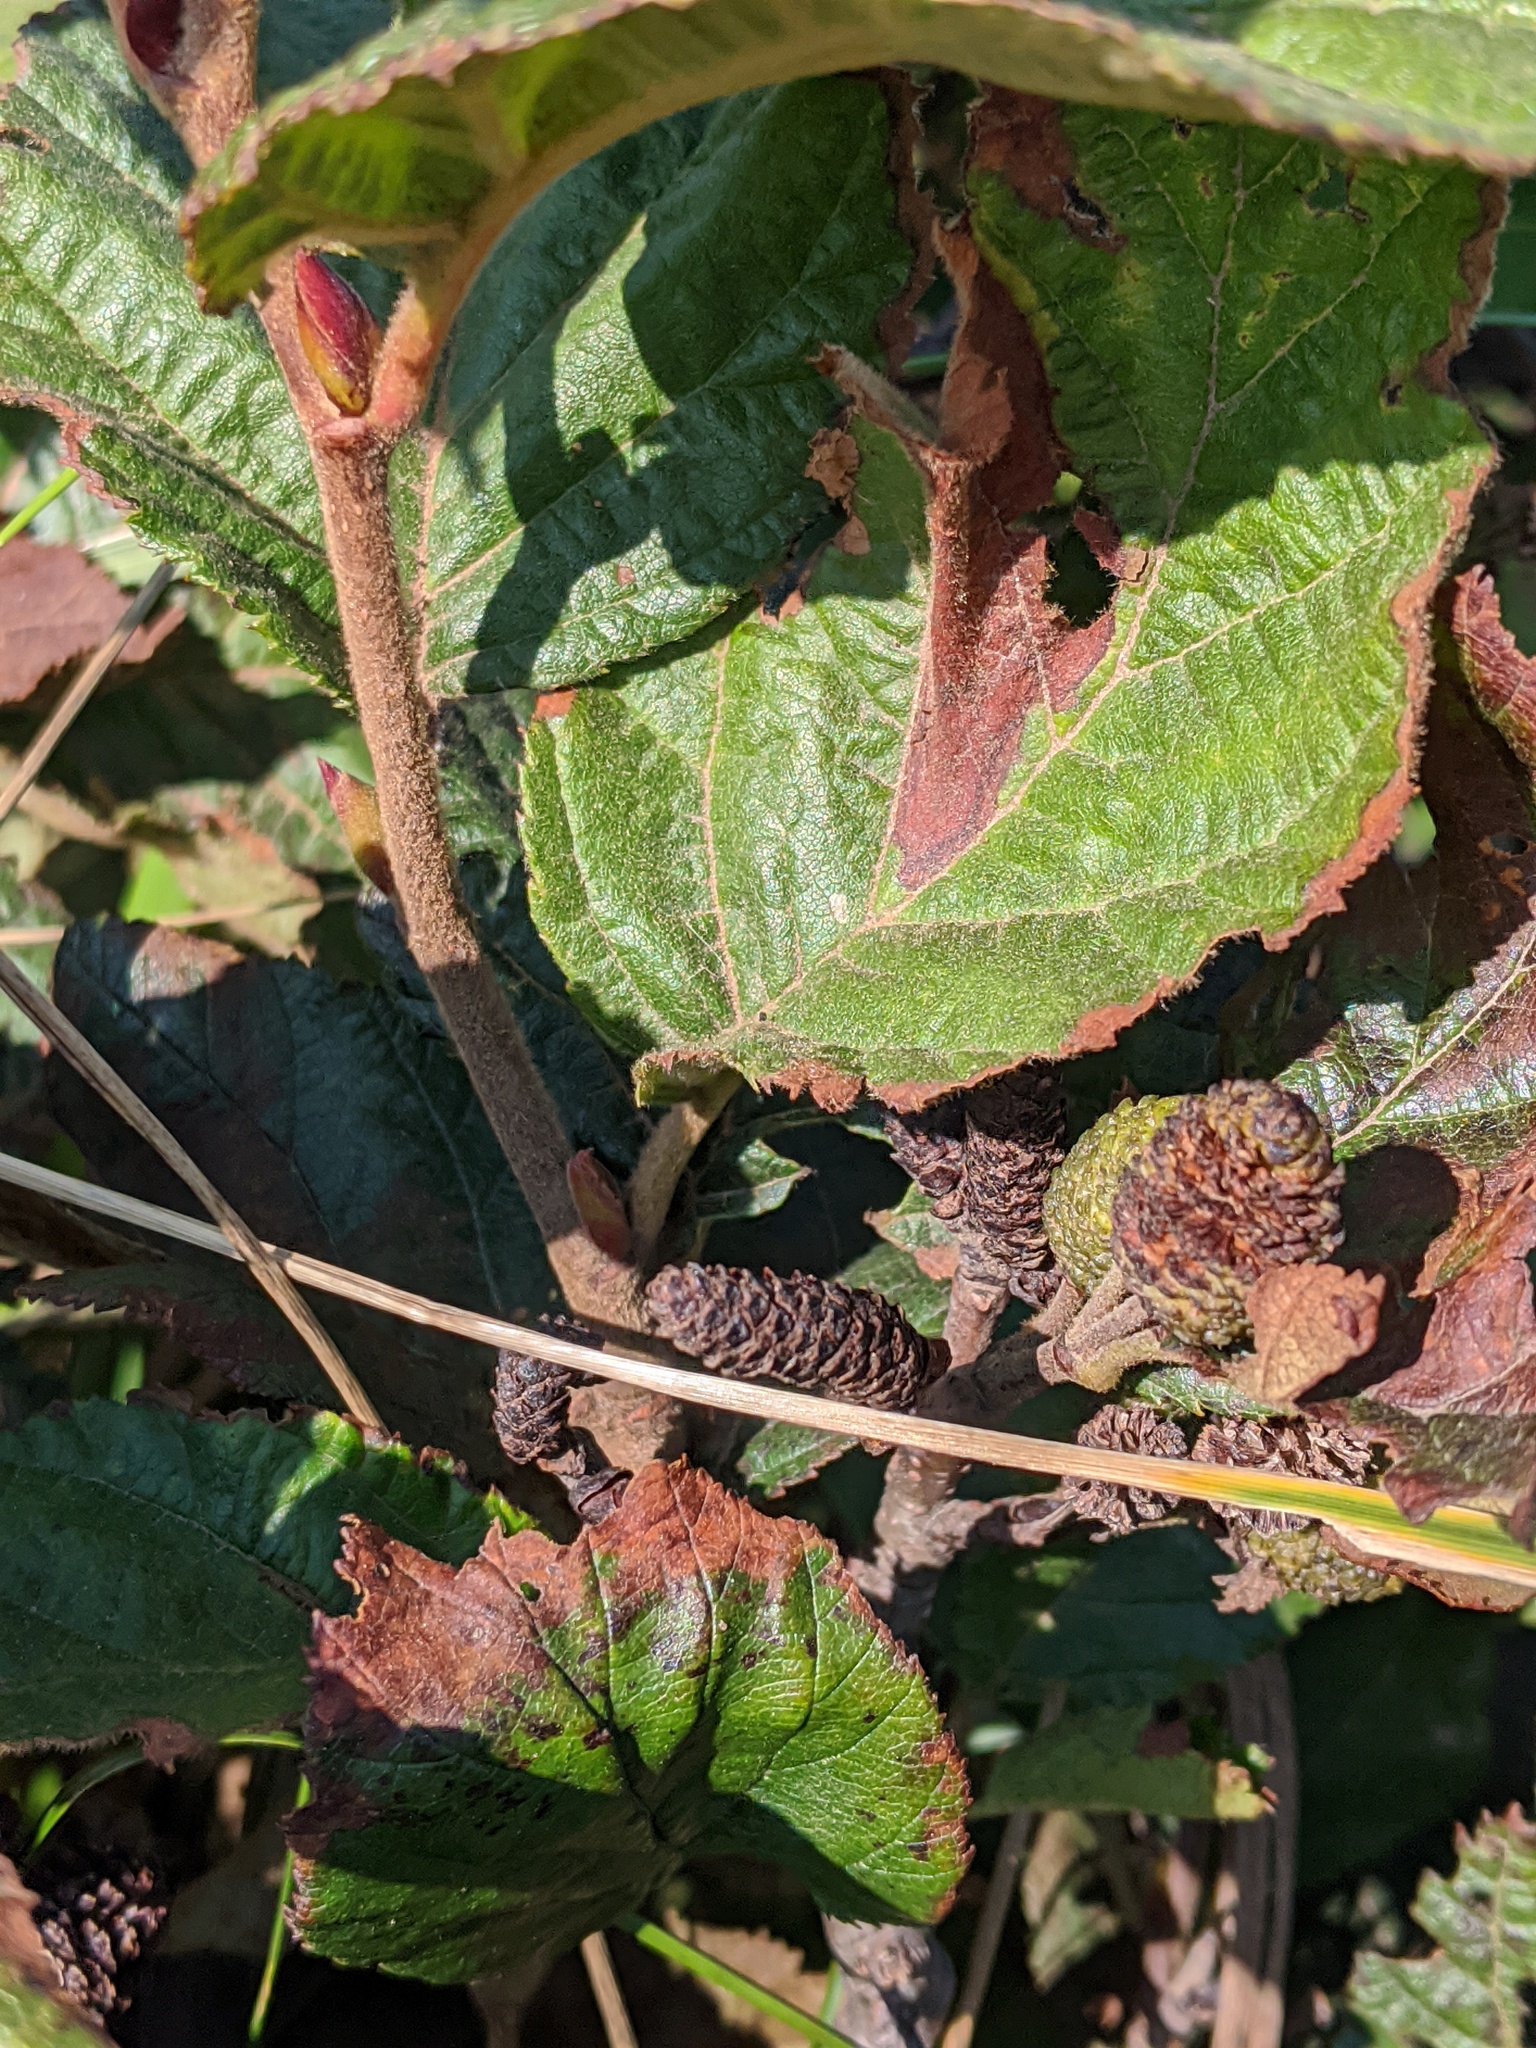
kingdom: Plantae
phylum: Tracheophyta
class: Magnoliopsida
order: Fagales
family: Betulaceae
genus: Alnus
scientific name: Alnus alnobetula
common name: Green alder
